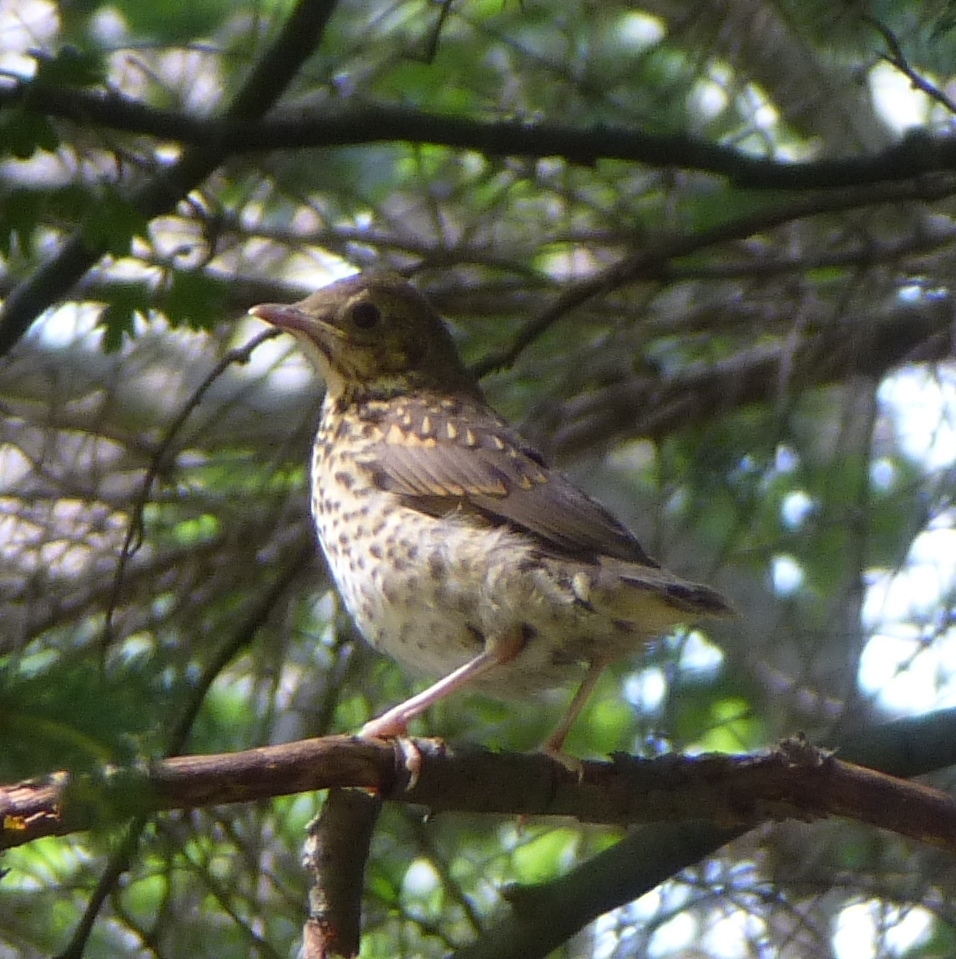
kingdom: Animalia
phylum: Chordata
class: Aves
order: Passeriformes
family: Turdidae
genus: Turdus
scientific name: Turdus philomelos
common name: Song thrush
